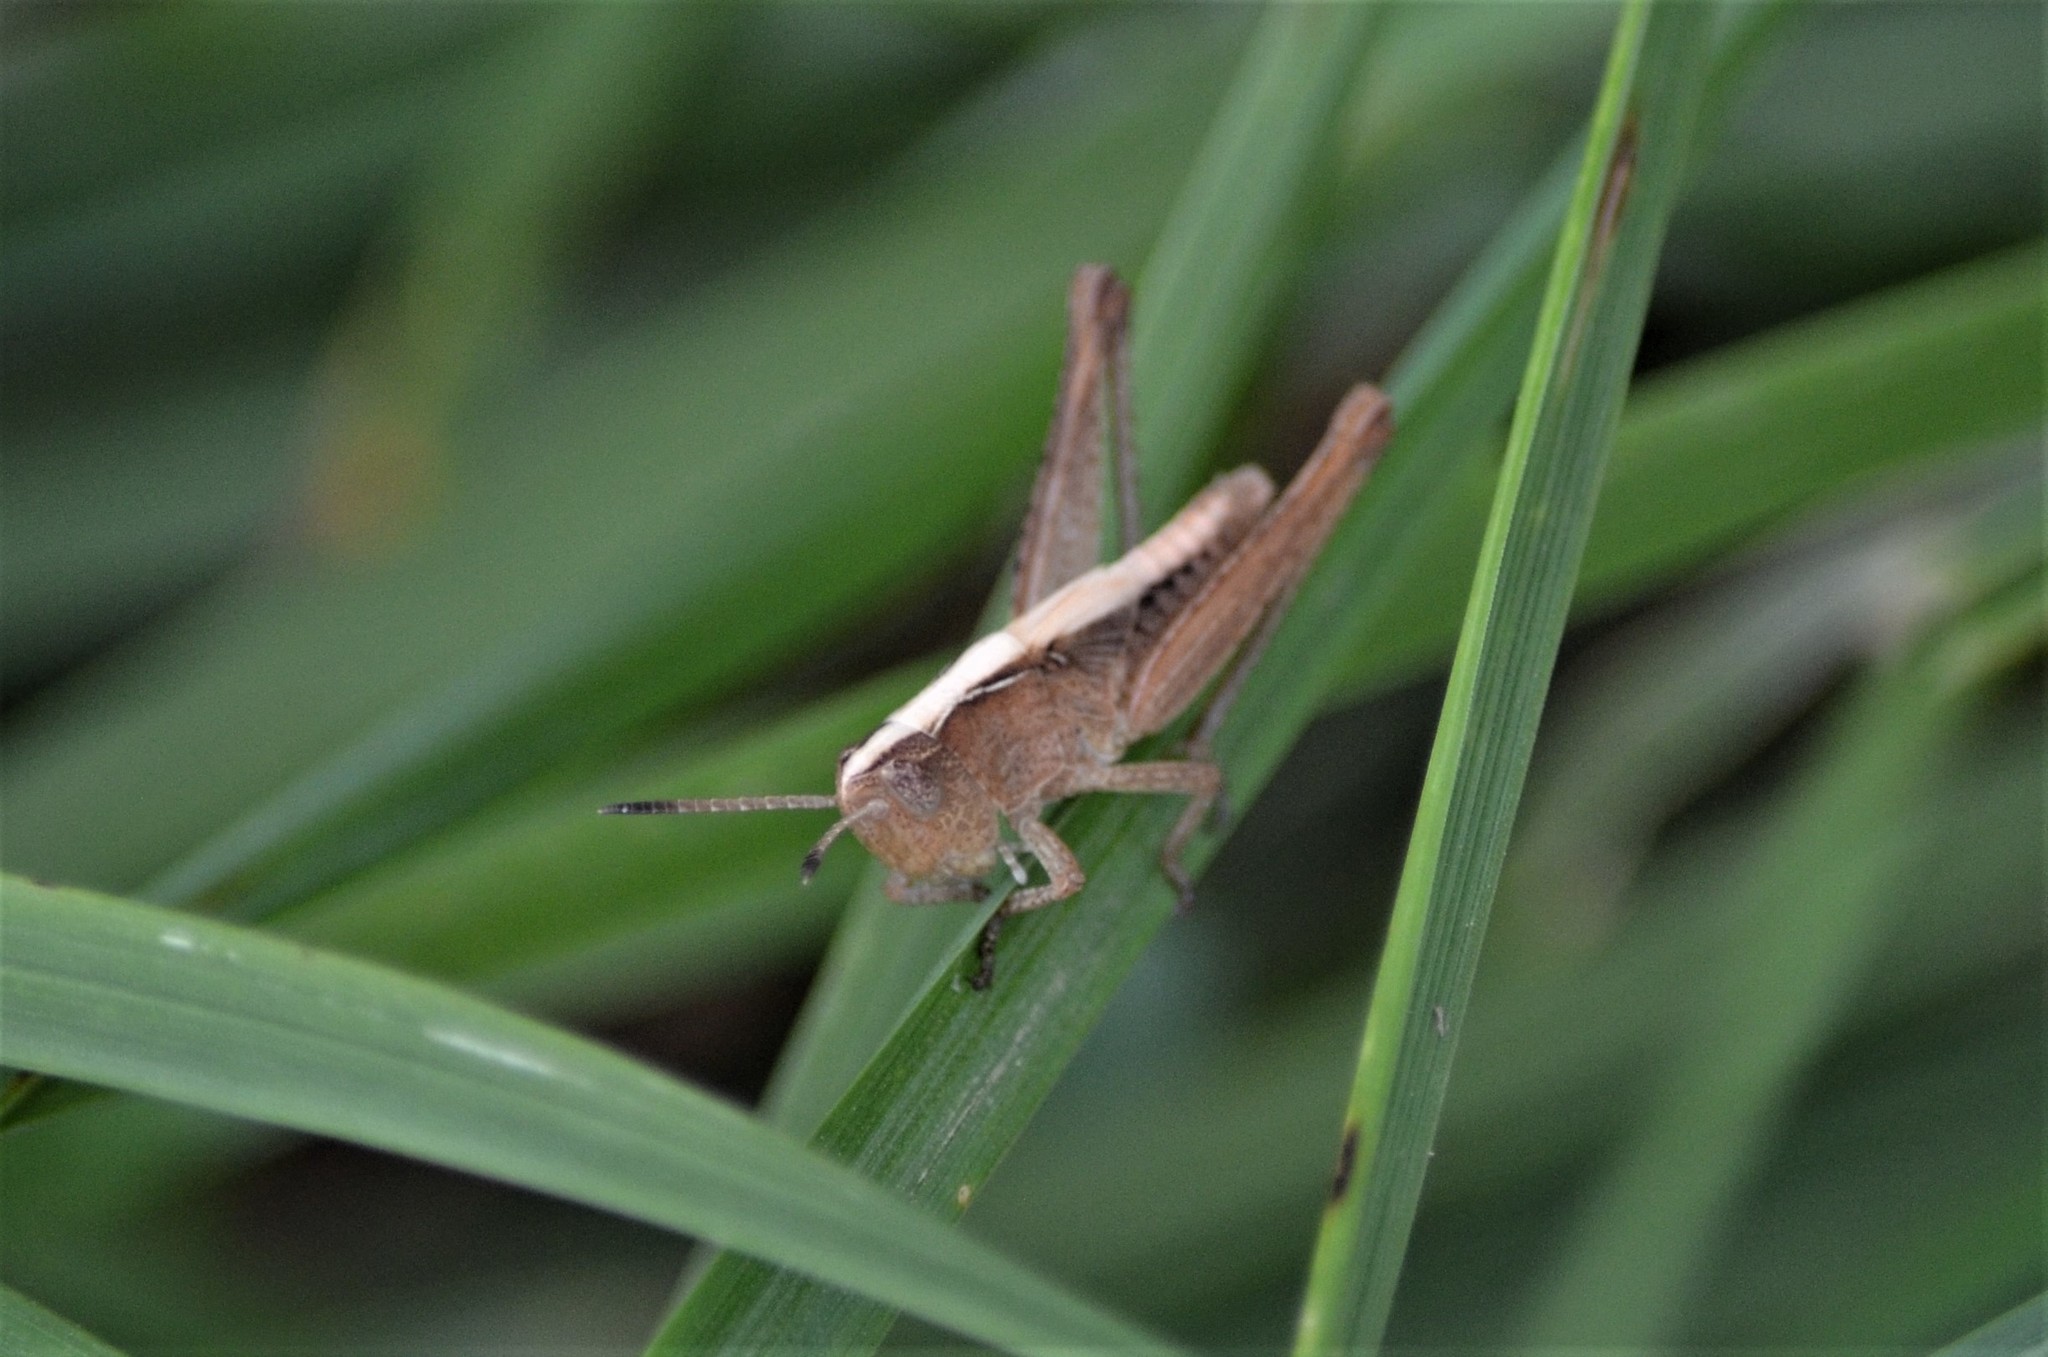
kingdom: Animalia
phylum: Arthropoda
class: Insecta
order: Orthoptera
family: Acrididae
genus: Gomphocerippus
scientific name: Gomphocerippus rufus
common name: Rufous grasshopper
